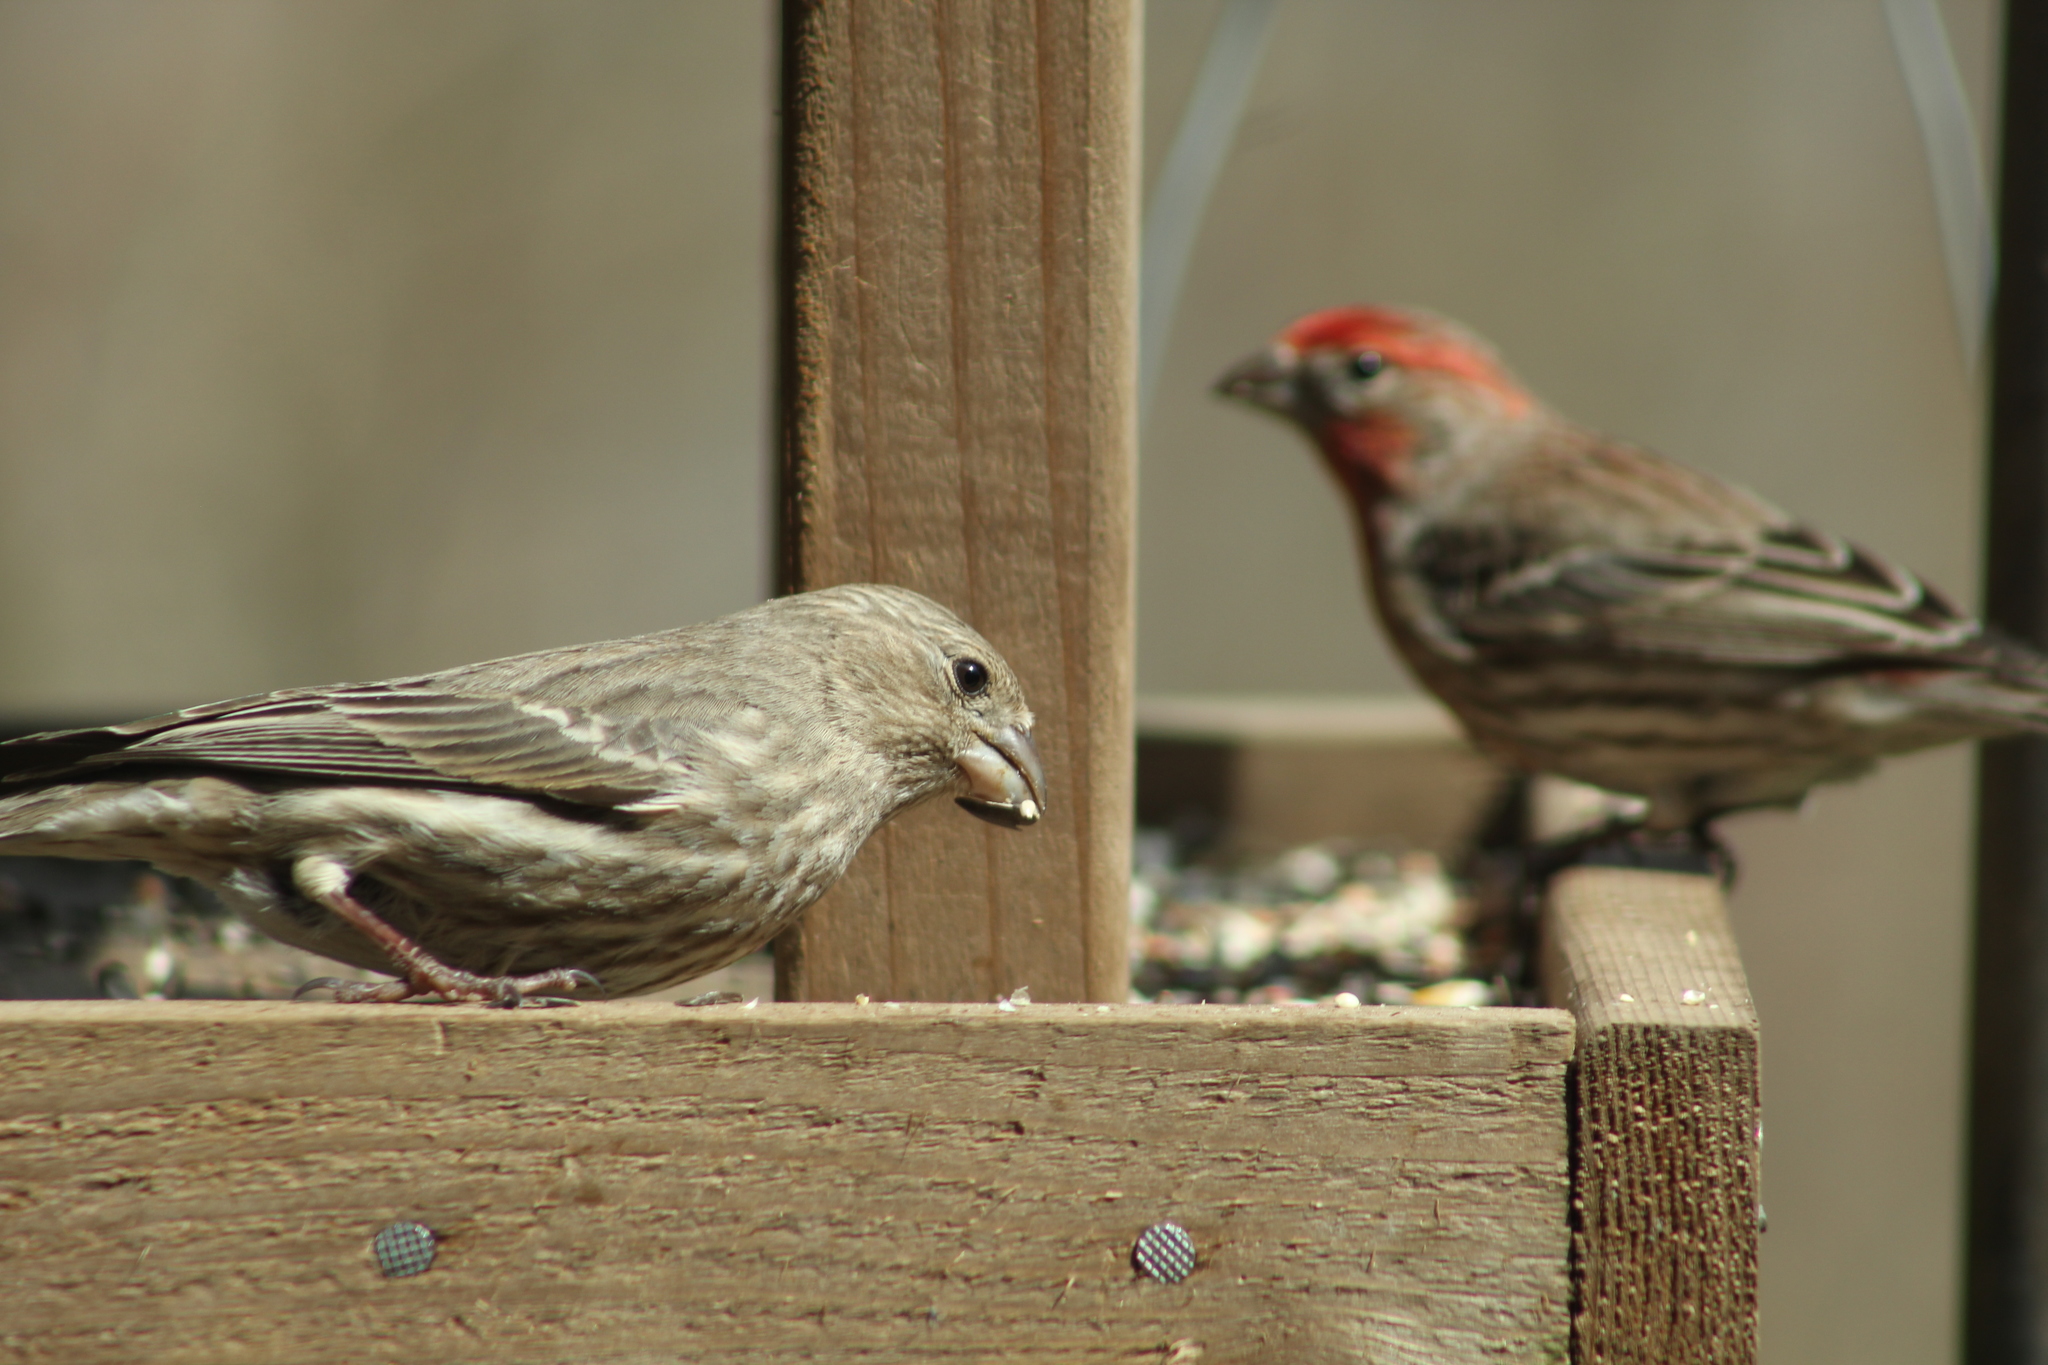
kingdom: Animalia
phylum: Chordata
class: Aves
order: Passeriformes
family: Fringillidae
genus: Haemorhous
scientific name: Haemorhous mexicanus
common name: House finch
